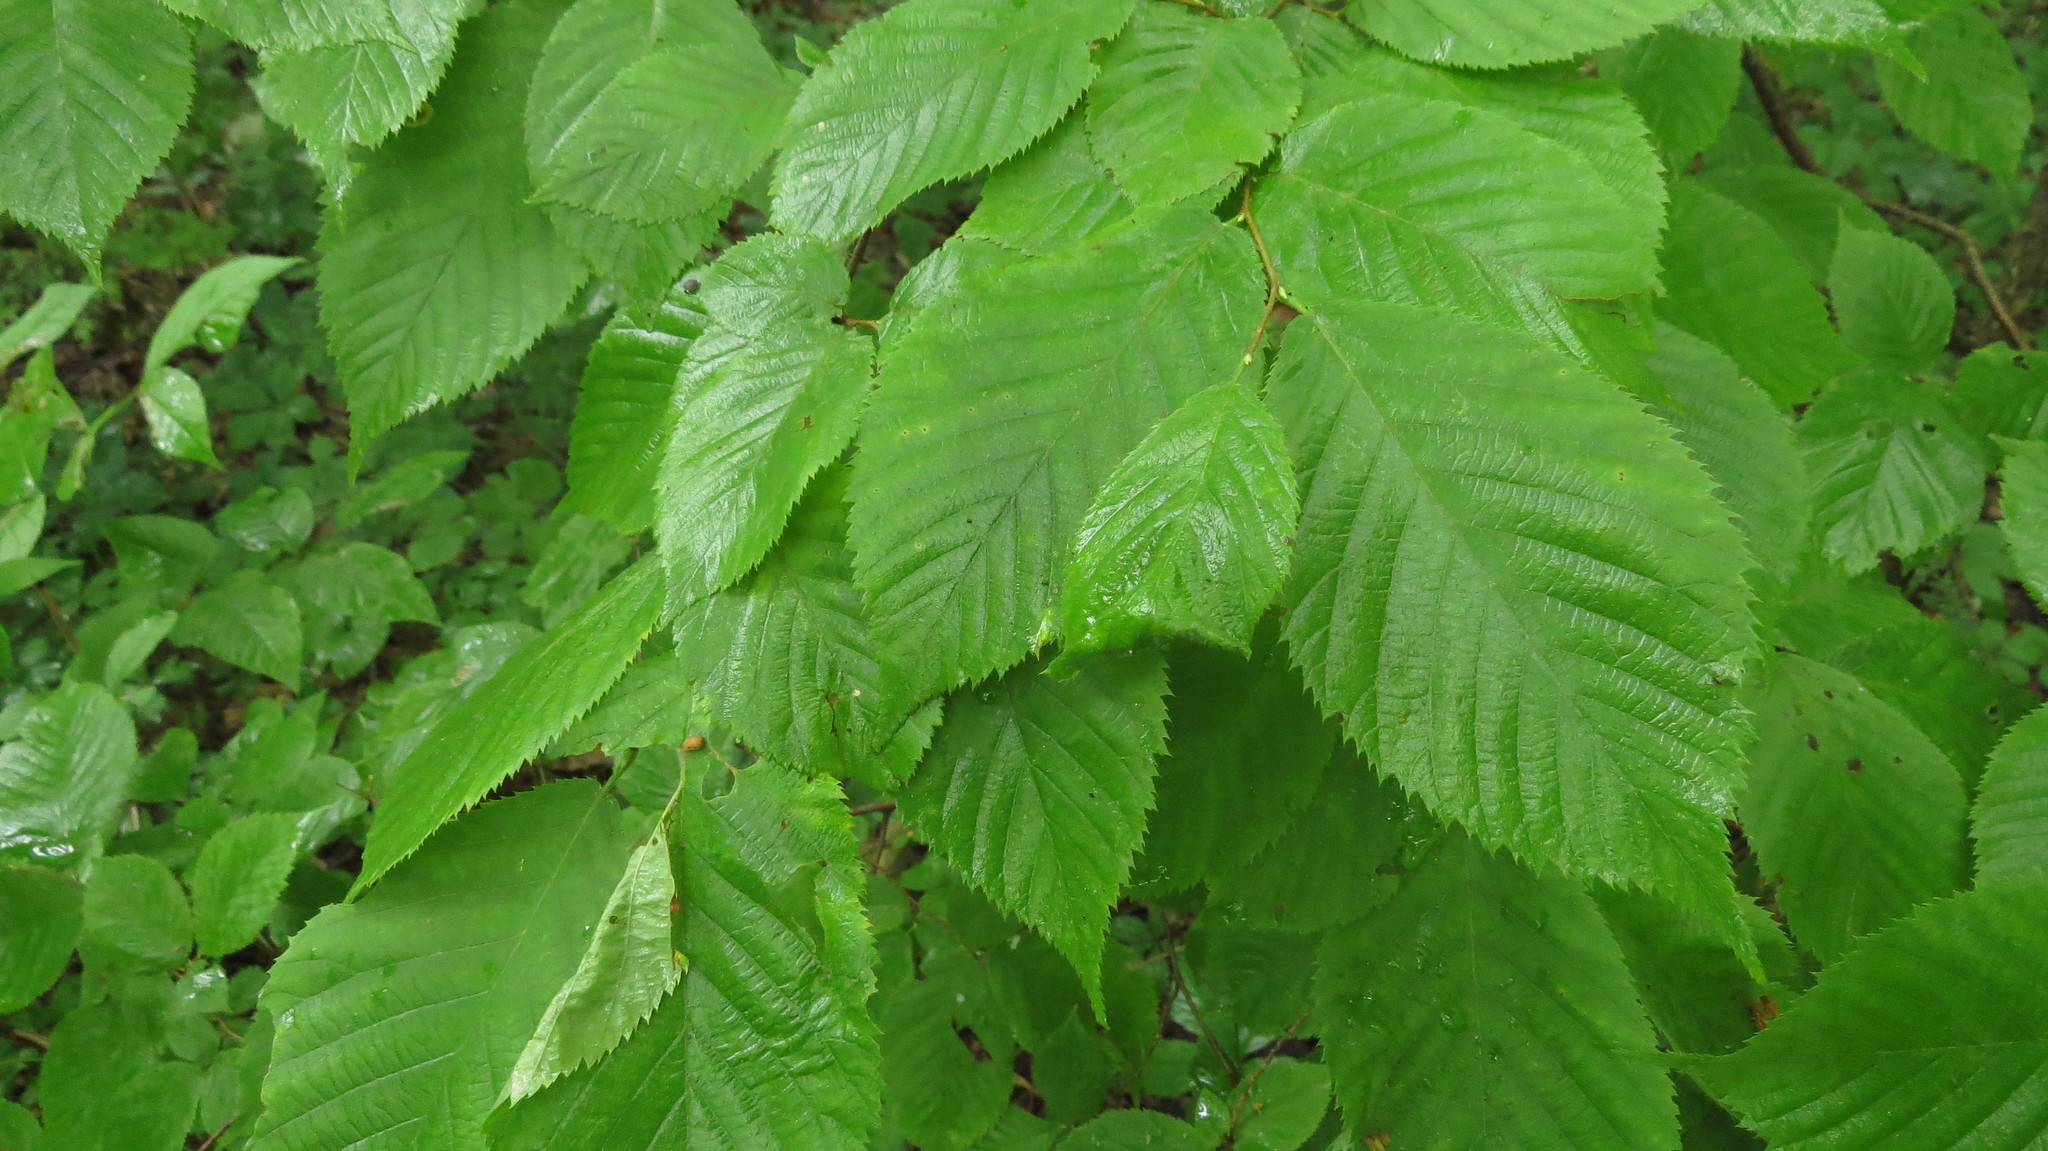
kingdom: Plantae
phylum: Tracheophyta
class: Magnoliopsida
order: Fagales
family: Betulaceae
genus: Ostrya
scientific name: Ostrya virginiana
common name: Ironwood
